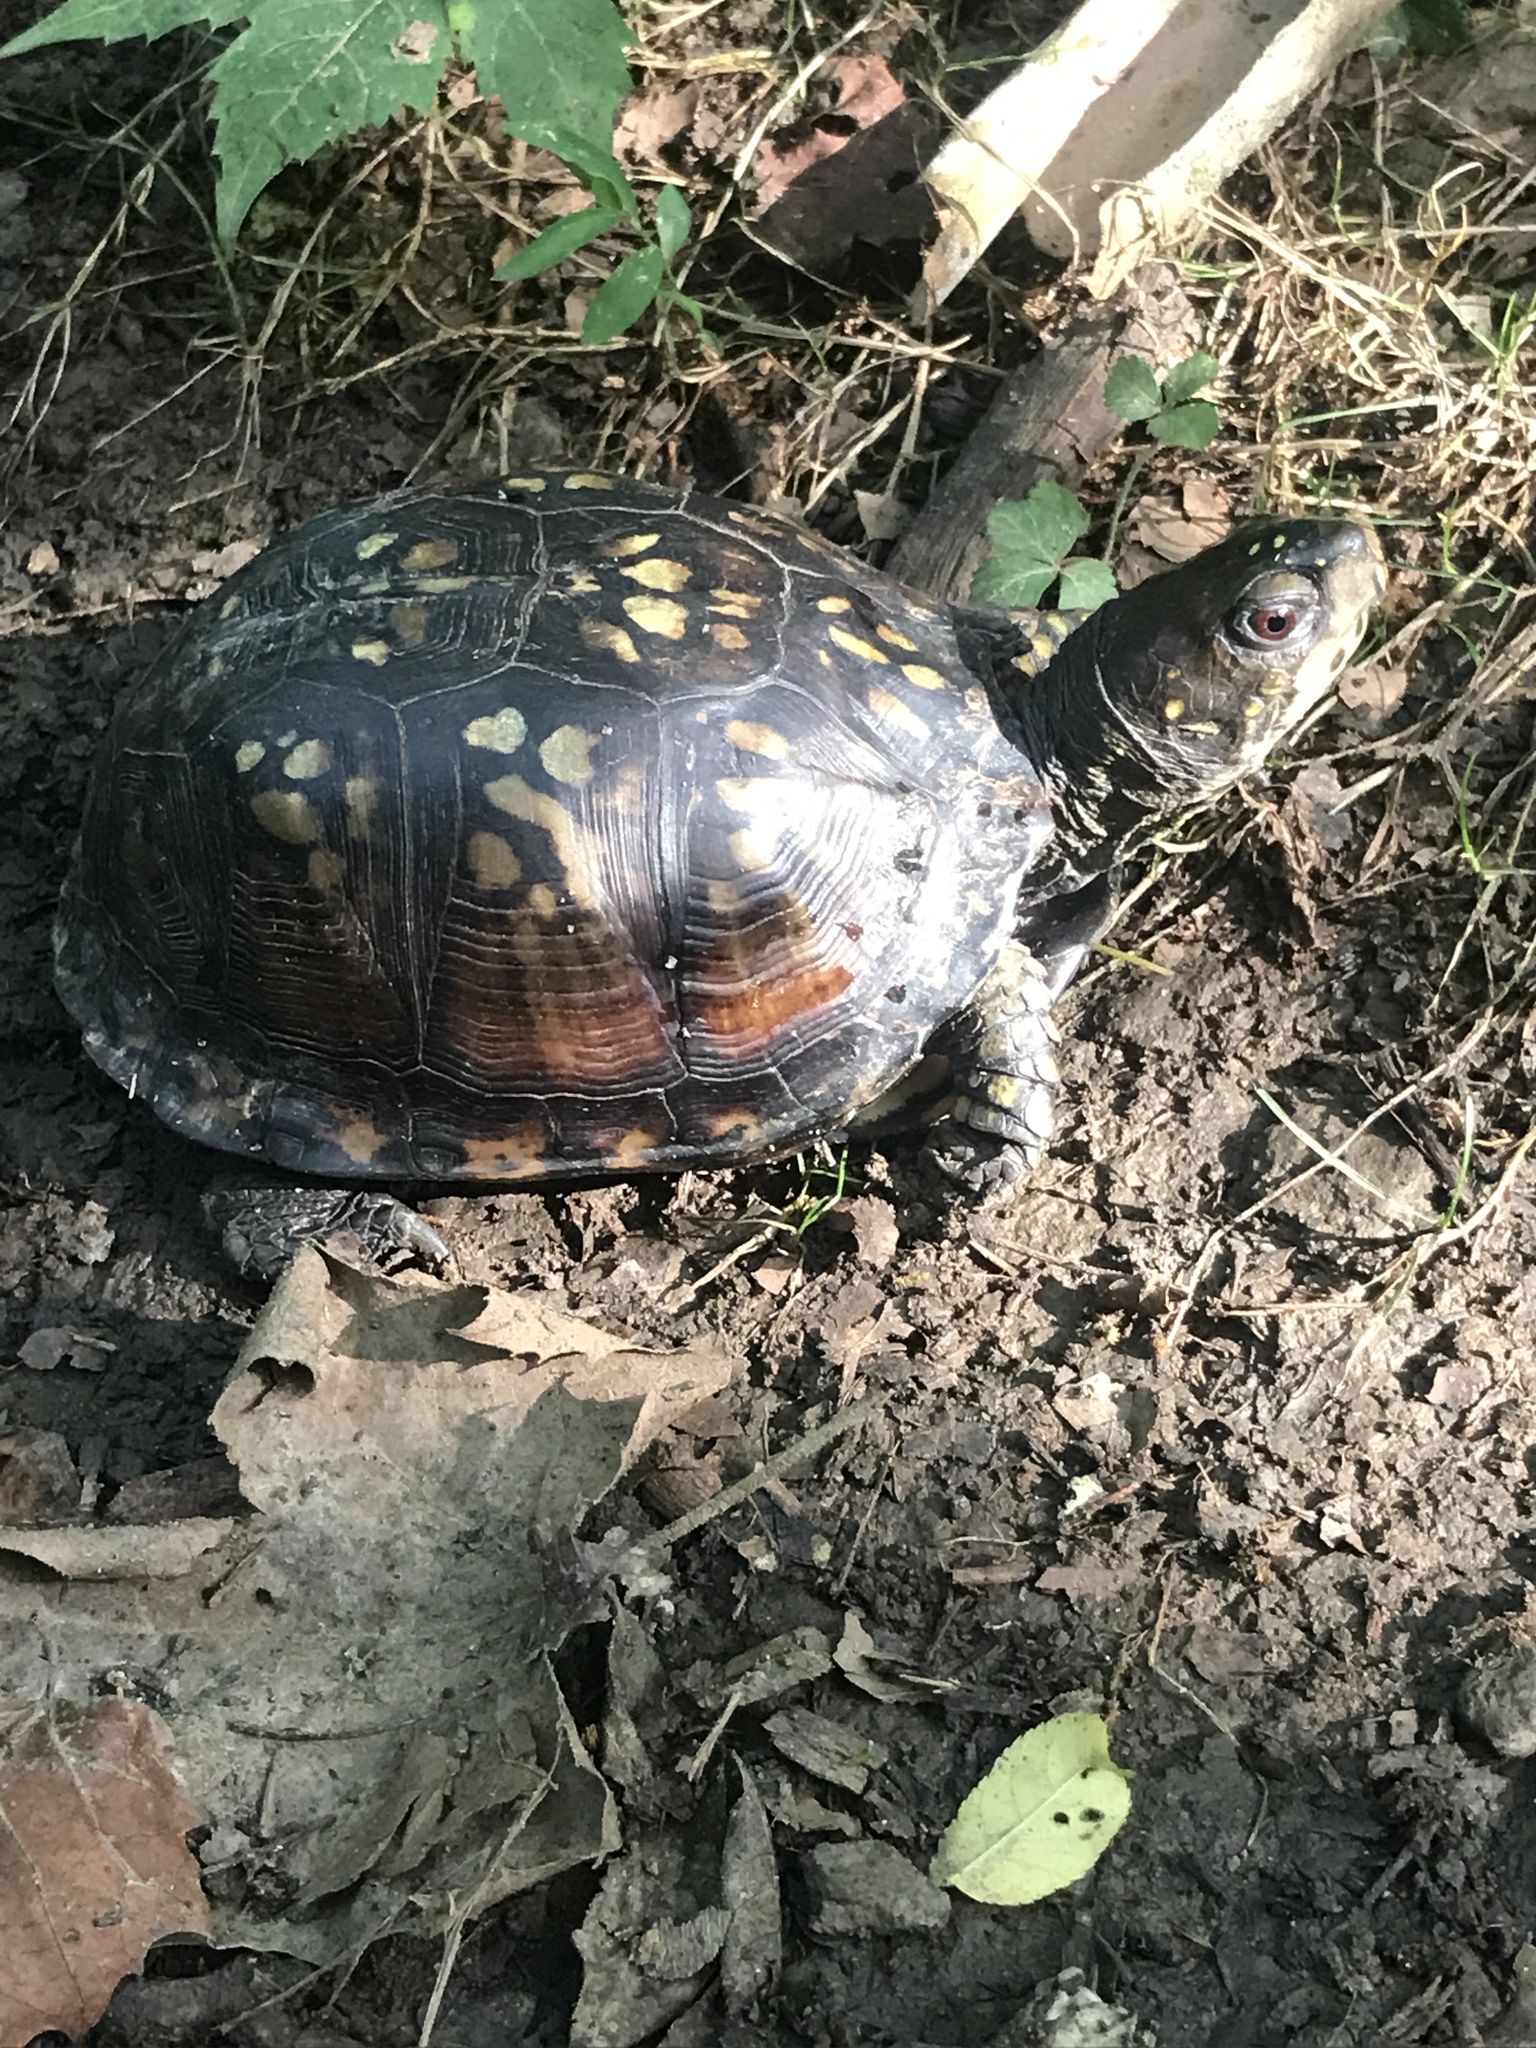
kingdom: Animalia
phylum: Chordata
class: Testudines
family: Emydidae
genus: Terrapene
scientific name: Terrapene carolina
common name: Common box turtle
